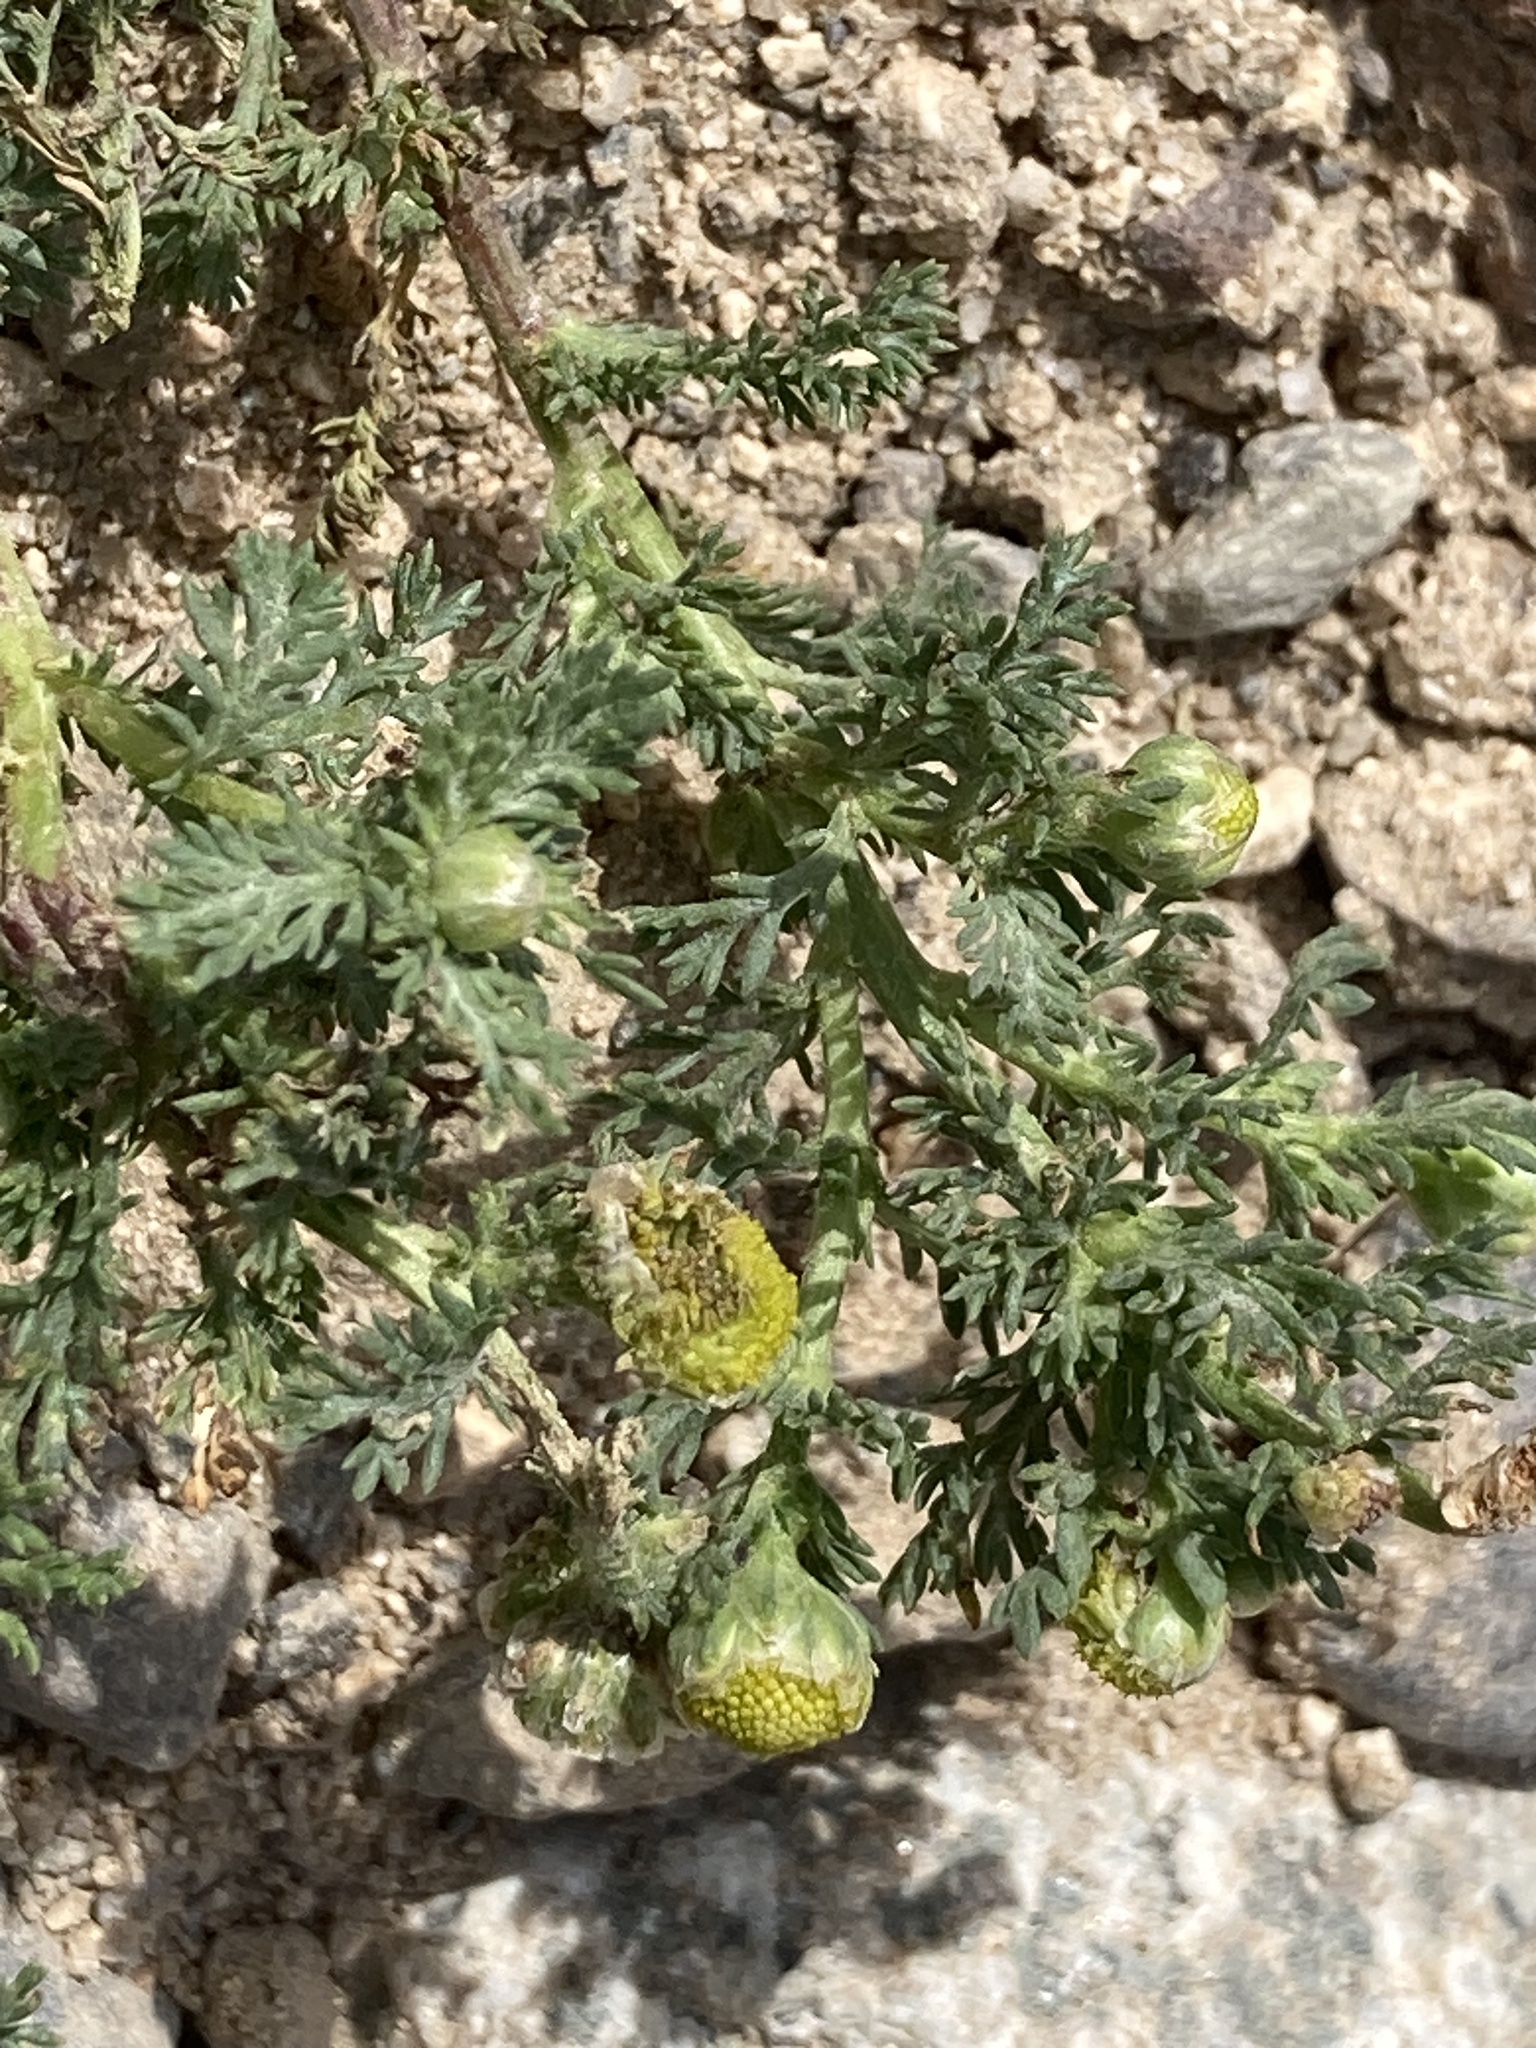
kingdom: Plantae
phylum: Tracheophyta
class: Magnoliopsida
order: Asterales
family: Asteraceae
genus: Matricaria
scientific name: Matricaria discoidea
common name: Disc mayweed
